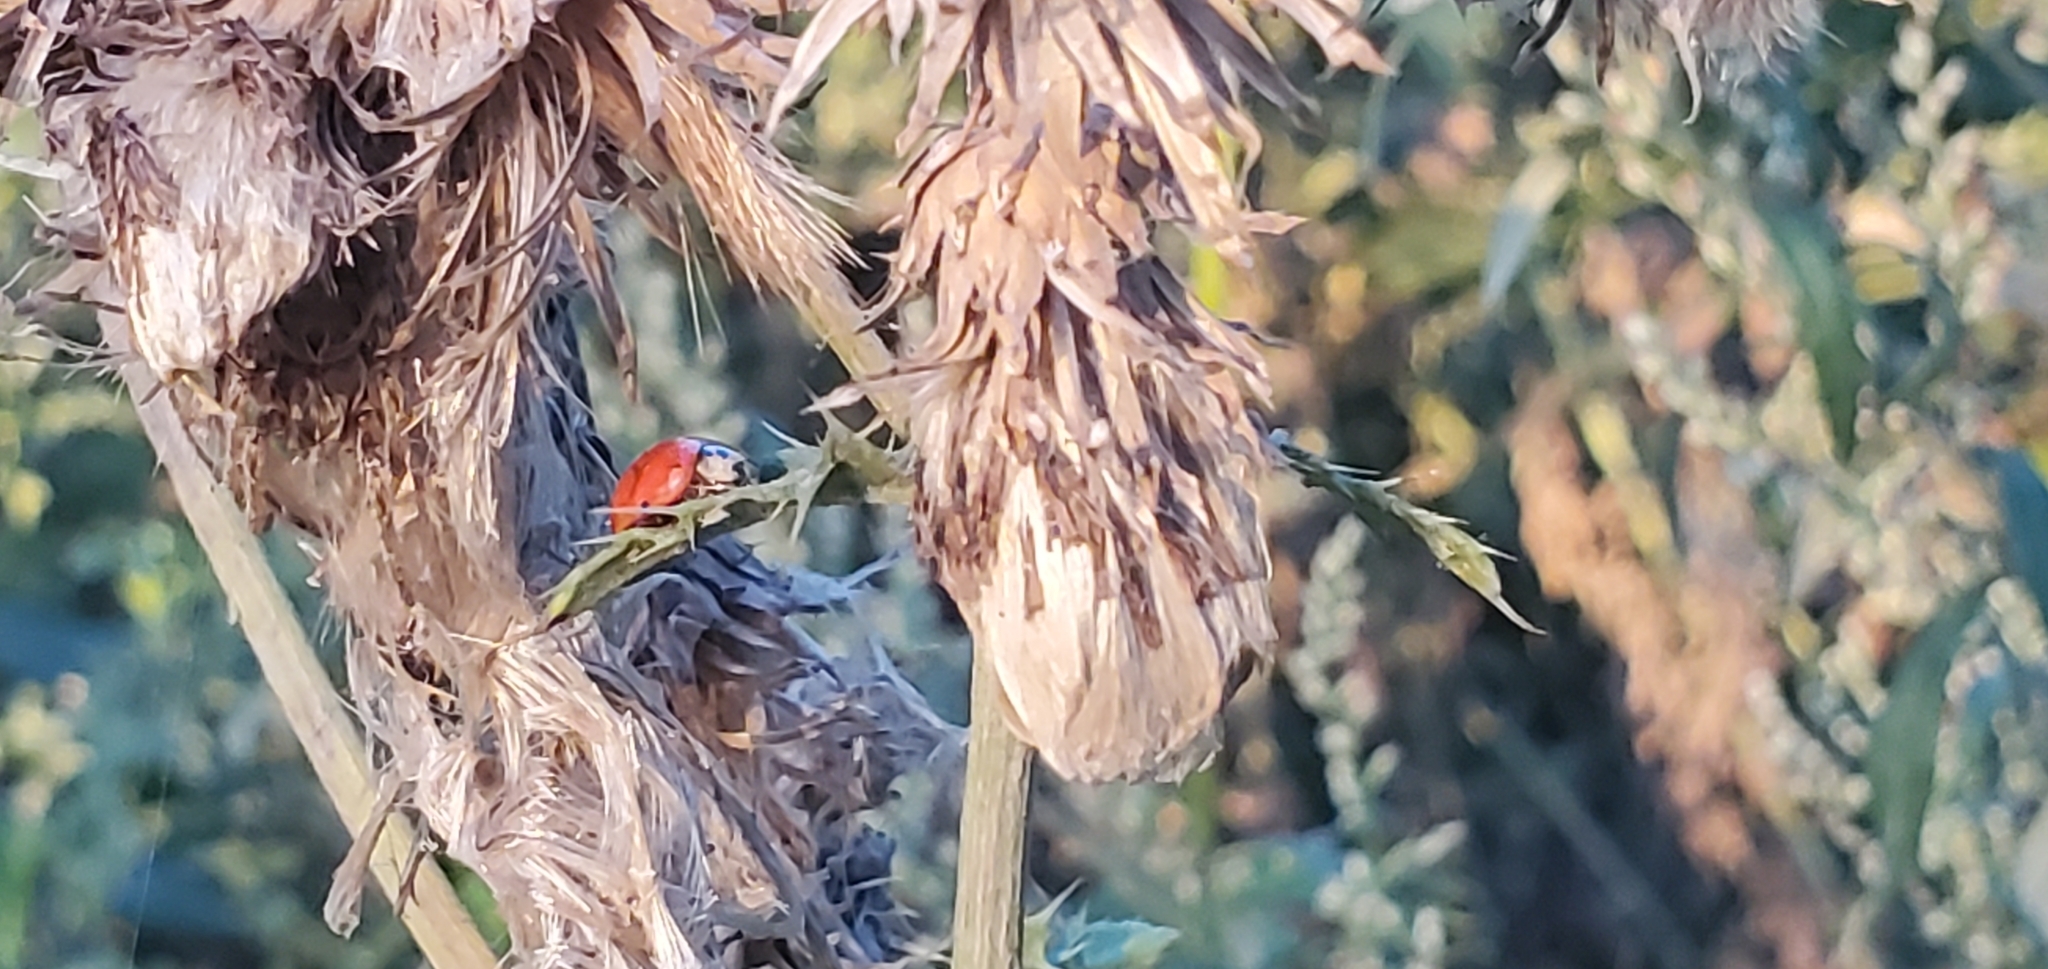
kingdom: Animalia
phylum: Arthropoda
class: Insecta
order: Coleoptera
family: Coccinellidae
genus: Harmonia
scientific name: Harmonia axyridis
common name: Harlequin ladybird
